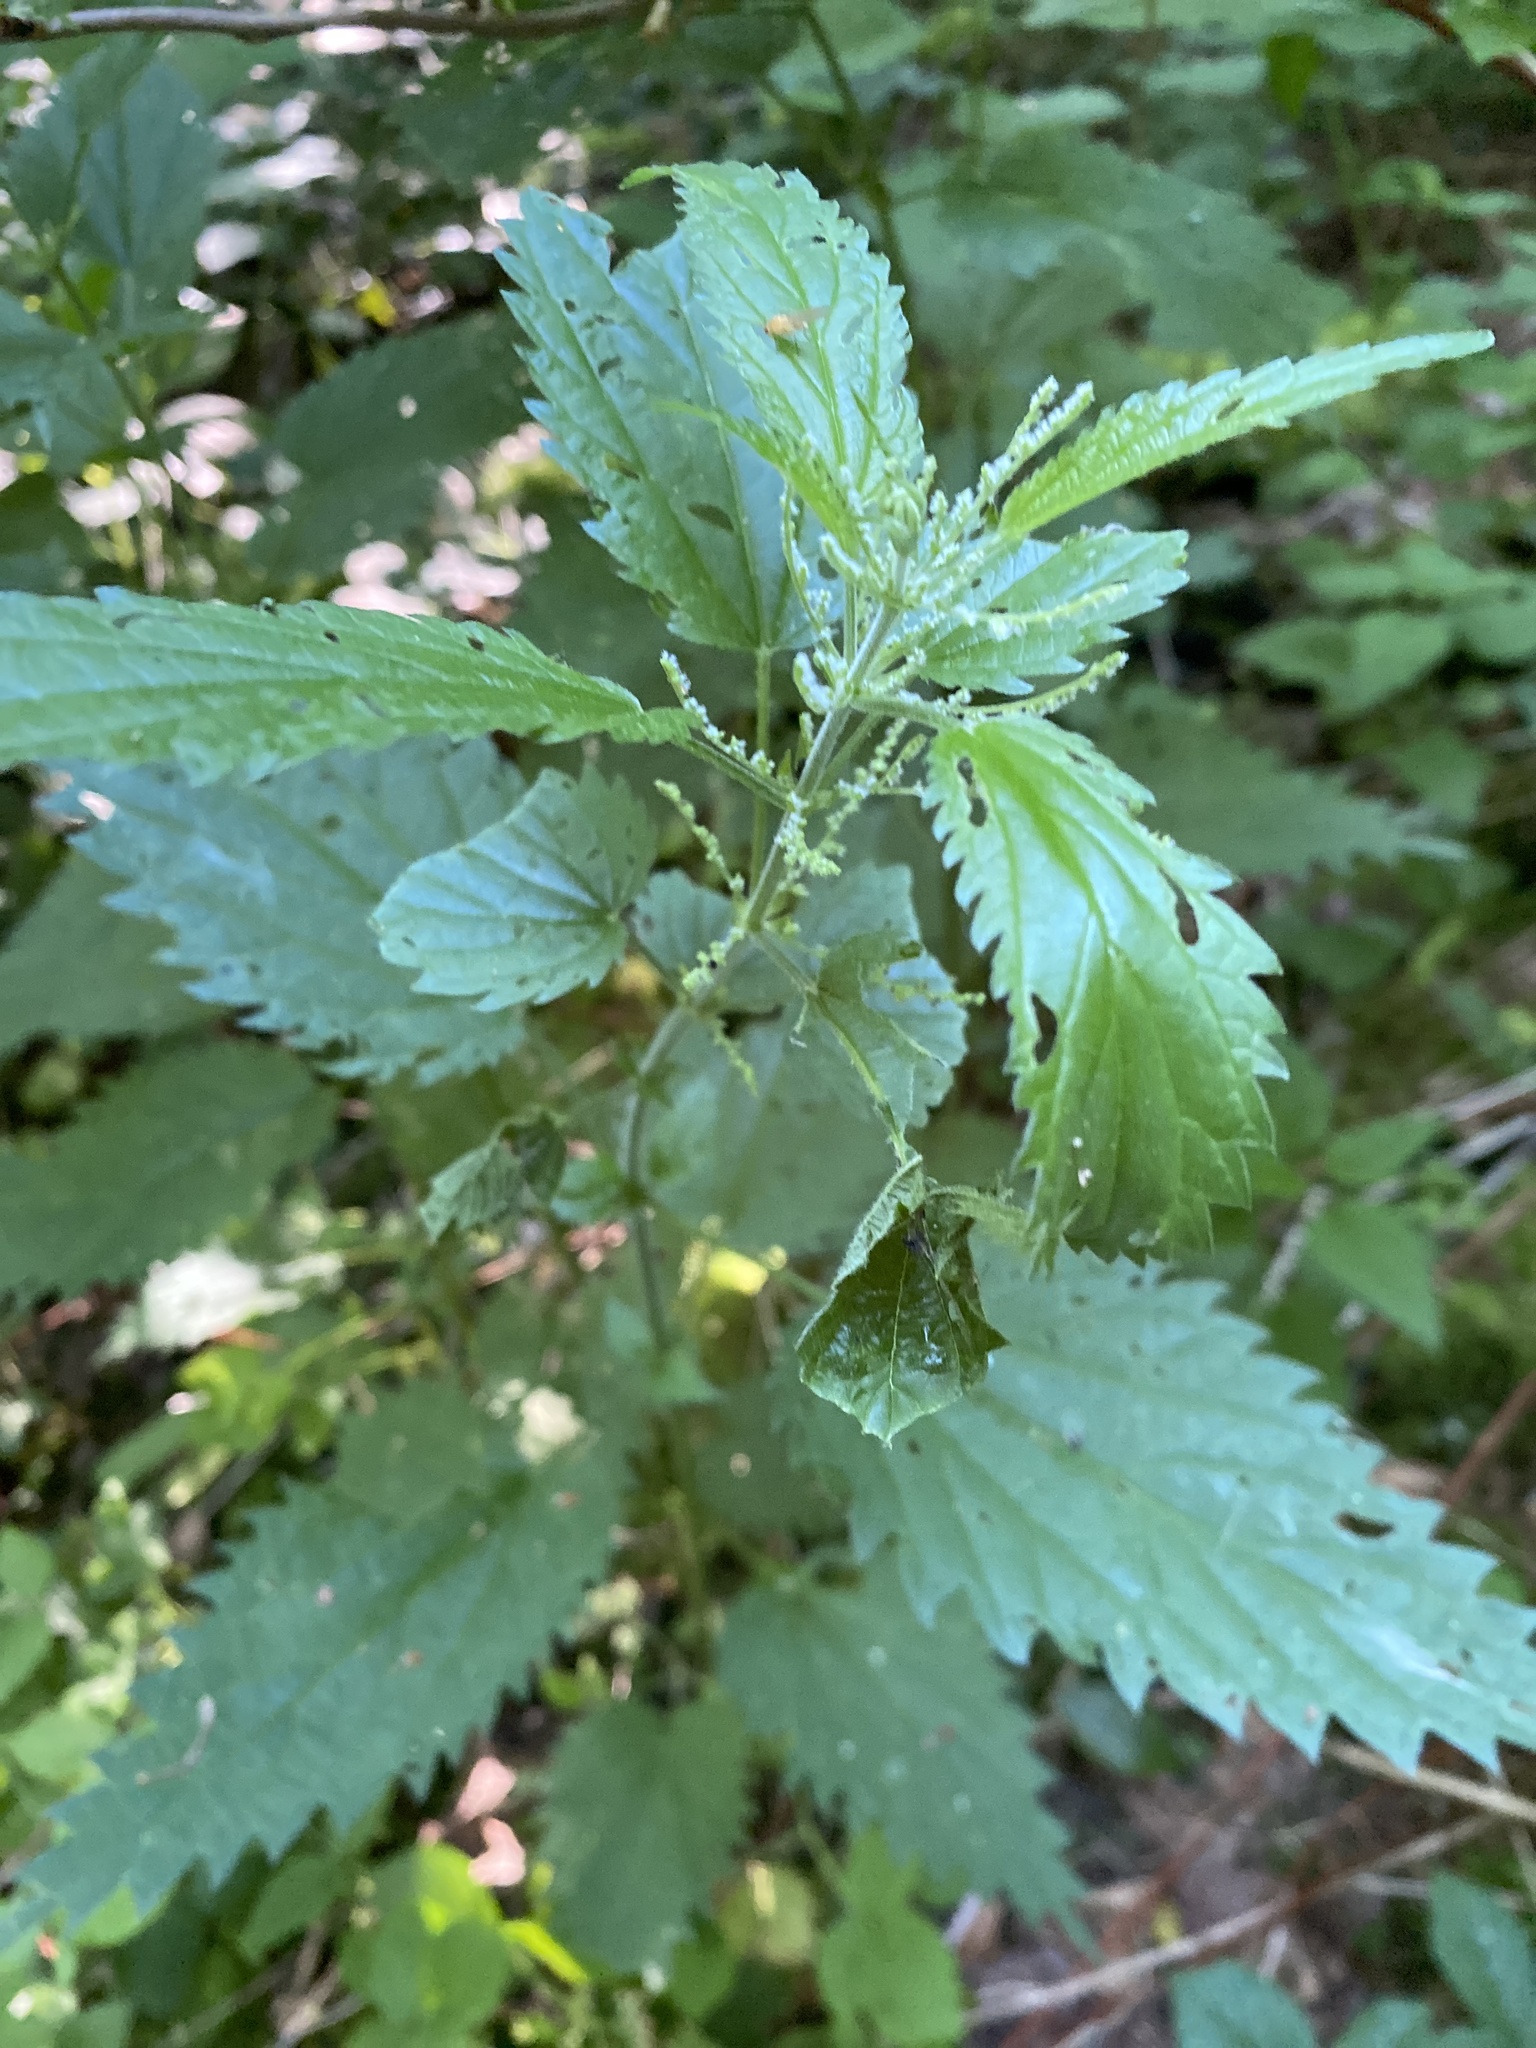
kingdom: Plantae
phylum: Tracheophyta
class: Magnoliopsida
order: Rosales
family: Urticaceae
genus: Urtica
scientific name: Urtica dioica
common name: Common nettle
